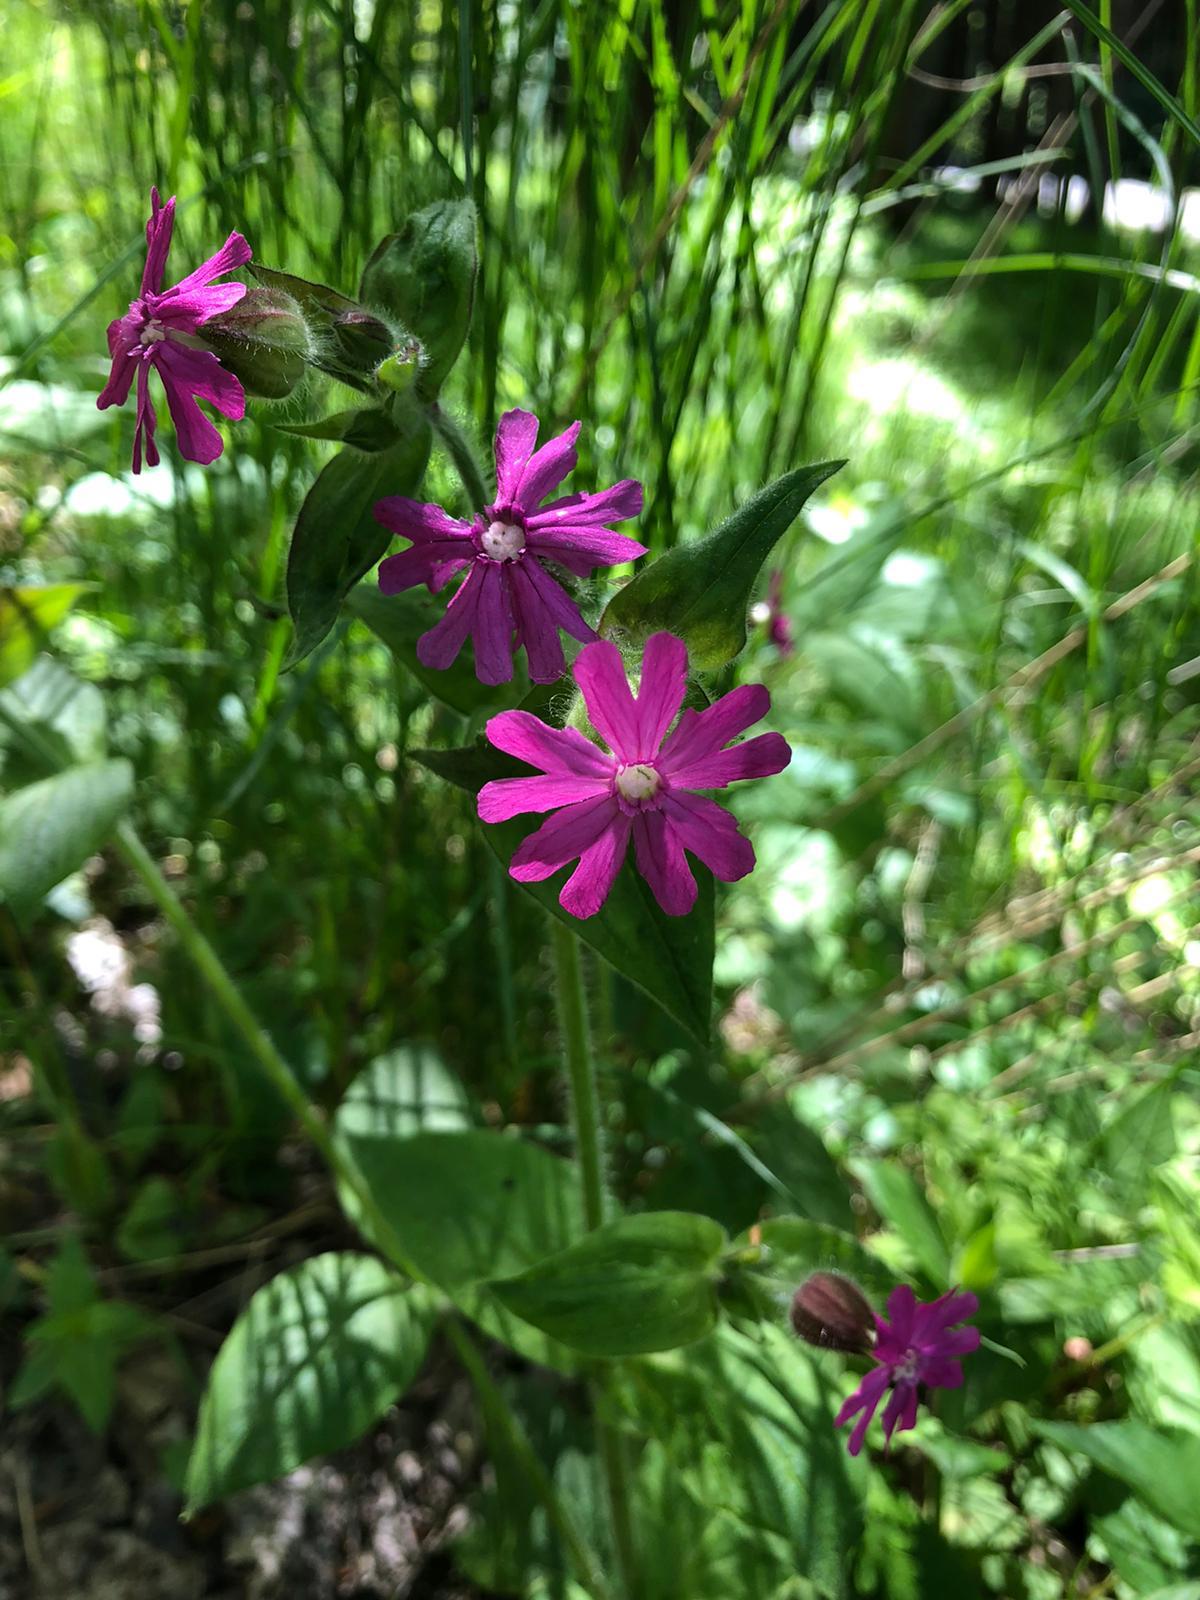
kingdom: Plantae
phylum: Tracheophyta
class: Magnoliopsida
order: Caryophyllales
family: Caryophyllaceae
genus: Silene
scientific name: Silene dioica
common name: Red campion
